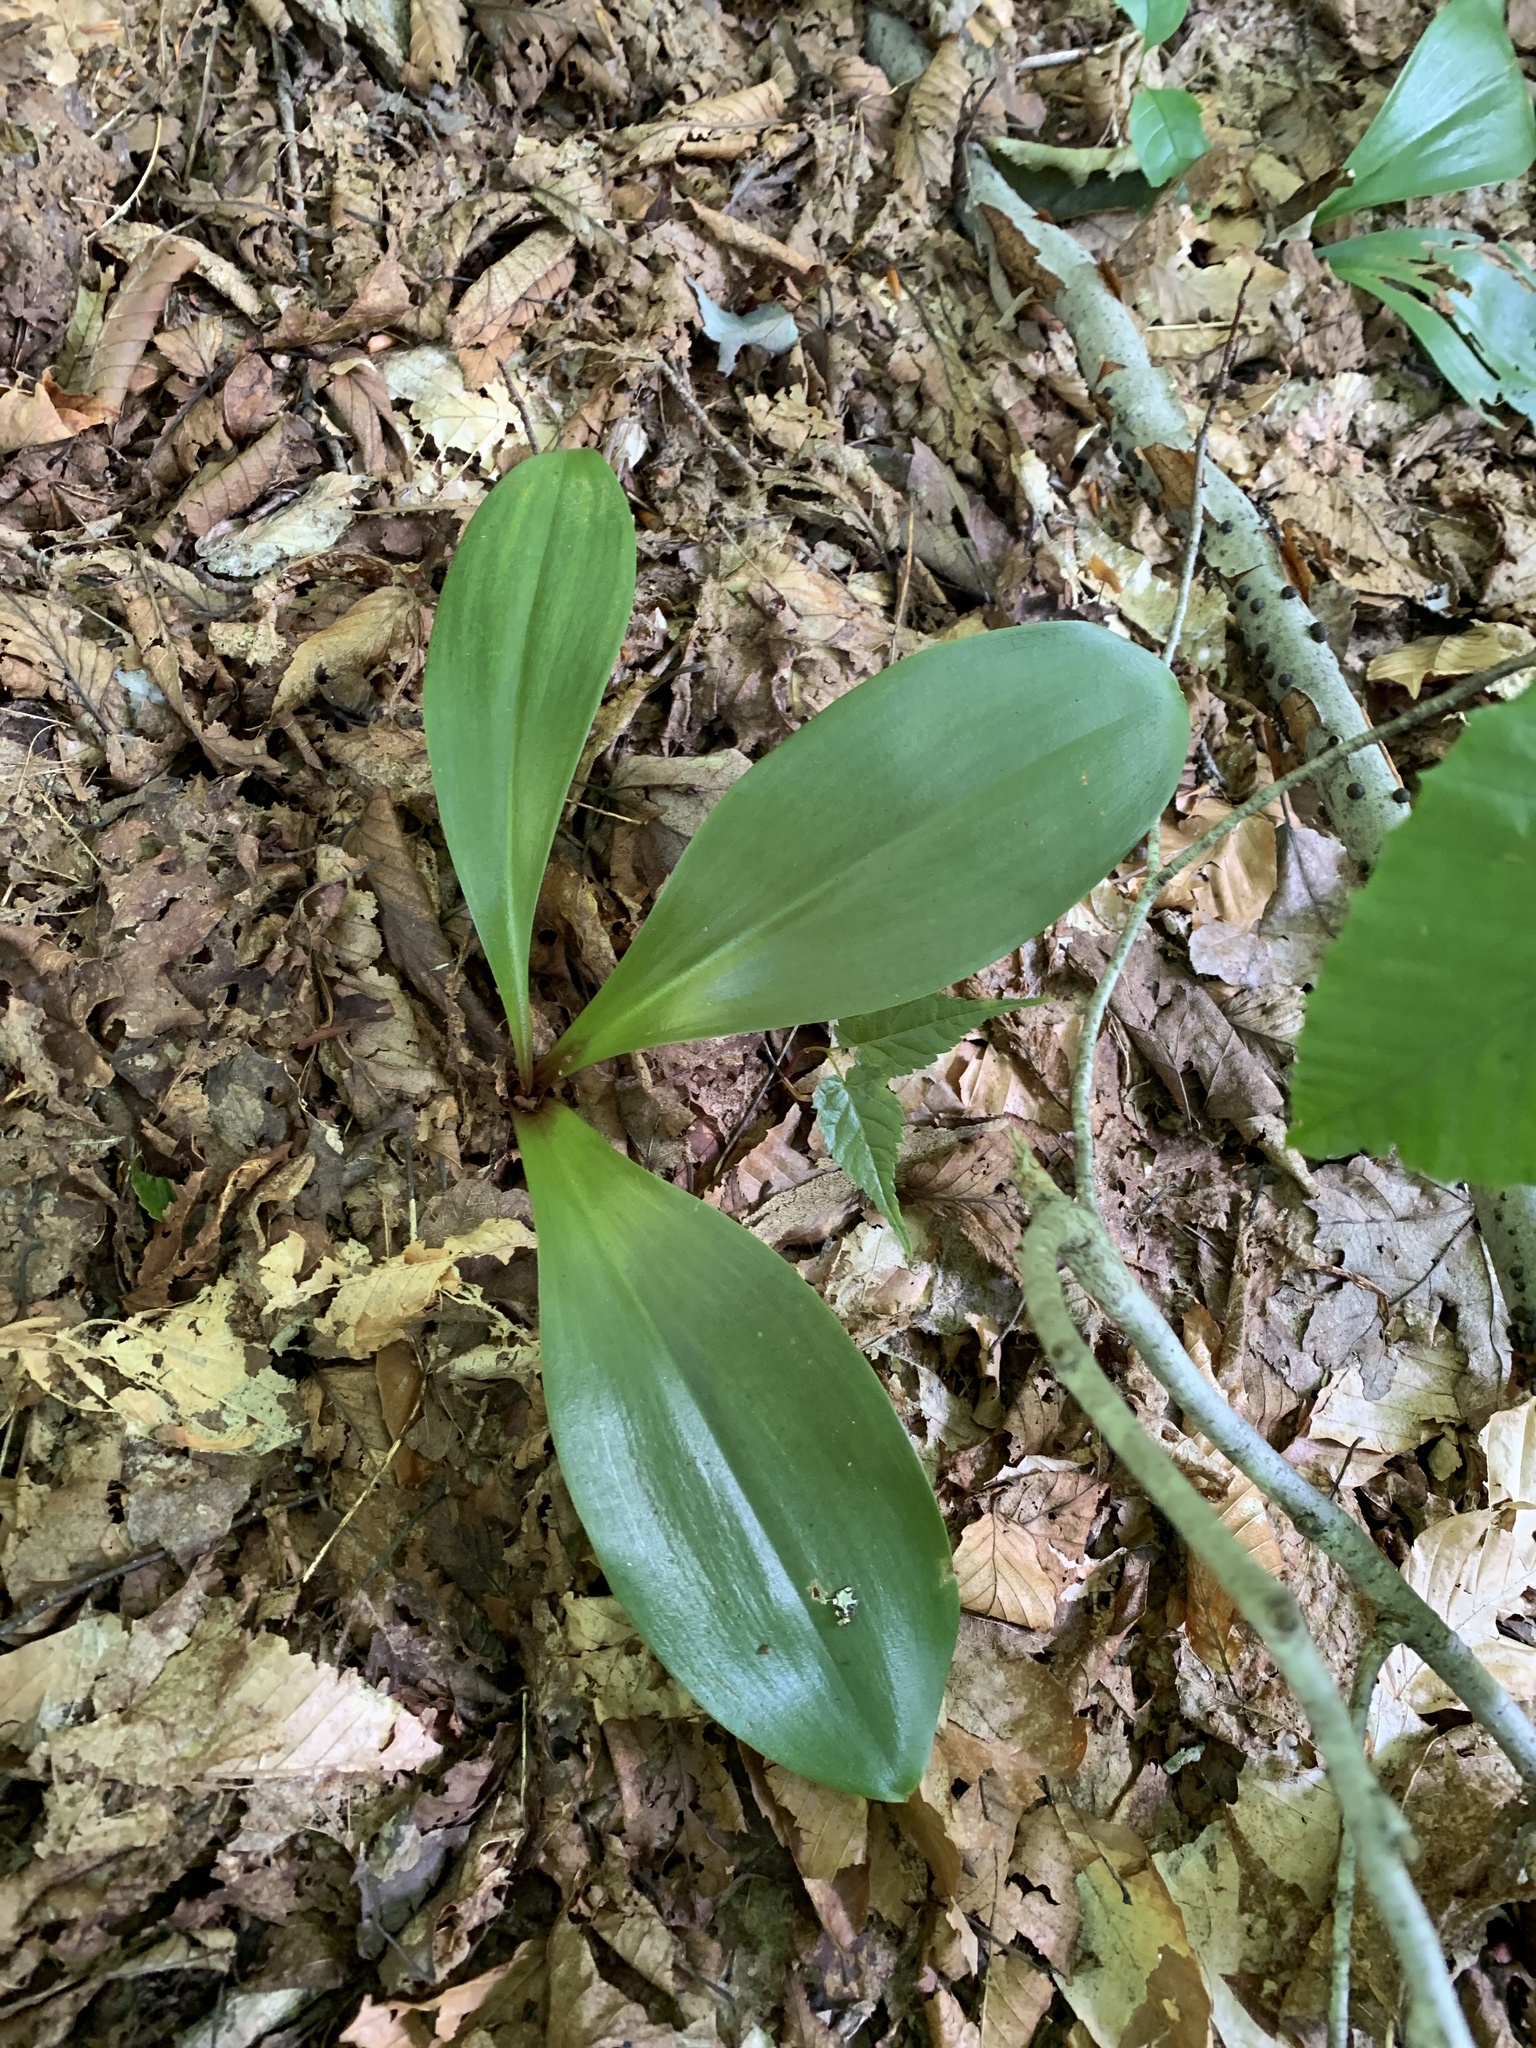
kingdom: Plantae
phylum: Tracheophyta
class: Liliopsida
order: Liliales
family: Liliaceae
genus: Clintonia
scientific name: Clintonia borealis
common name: Yellow clintonia
